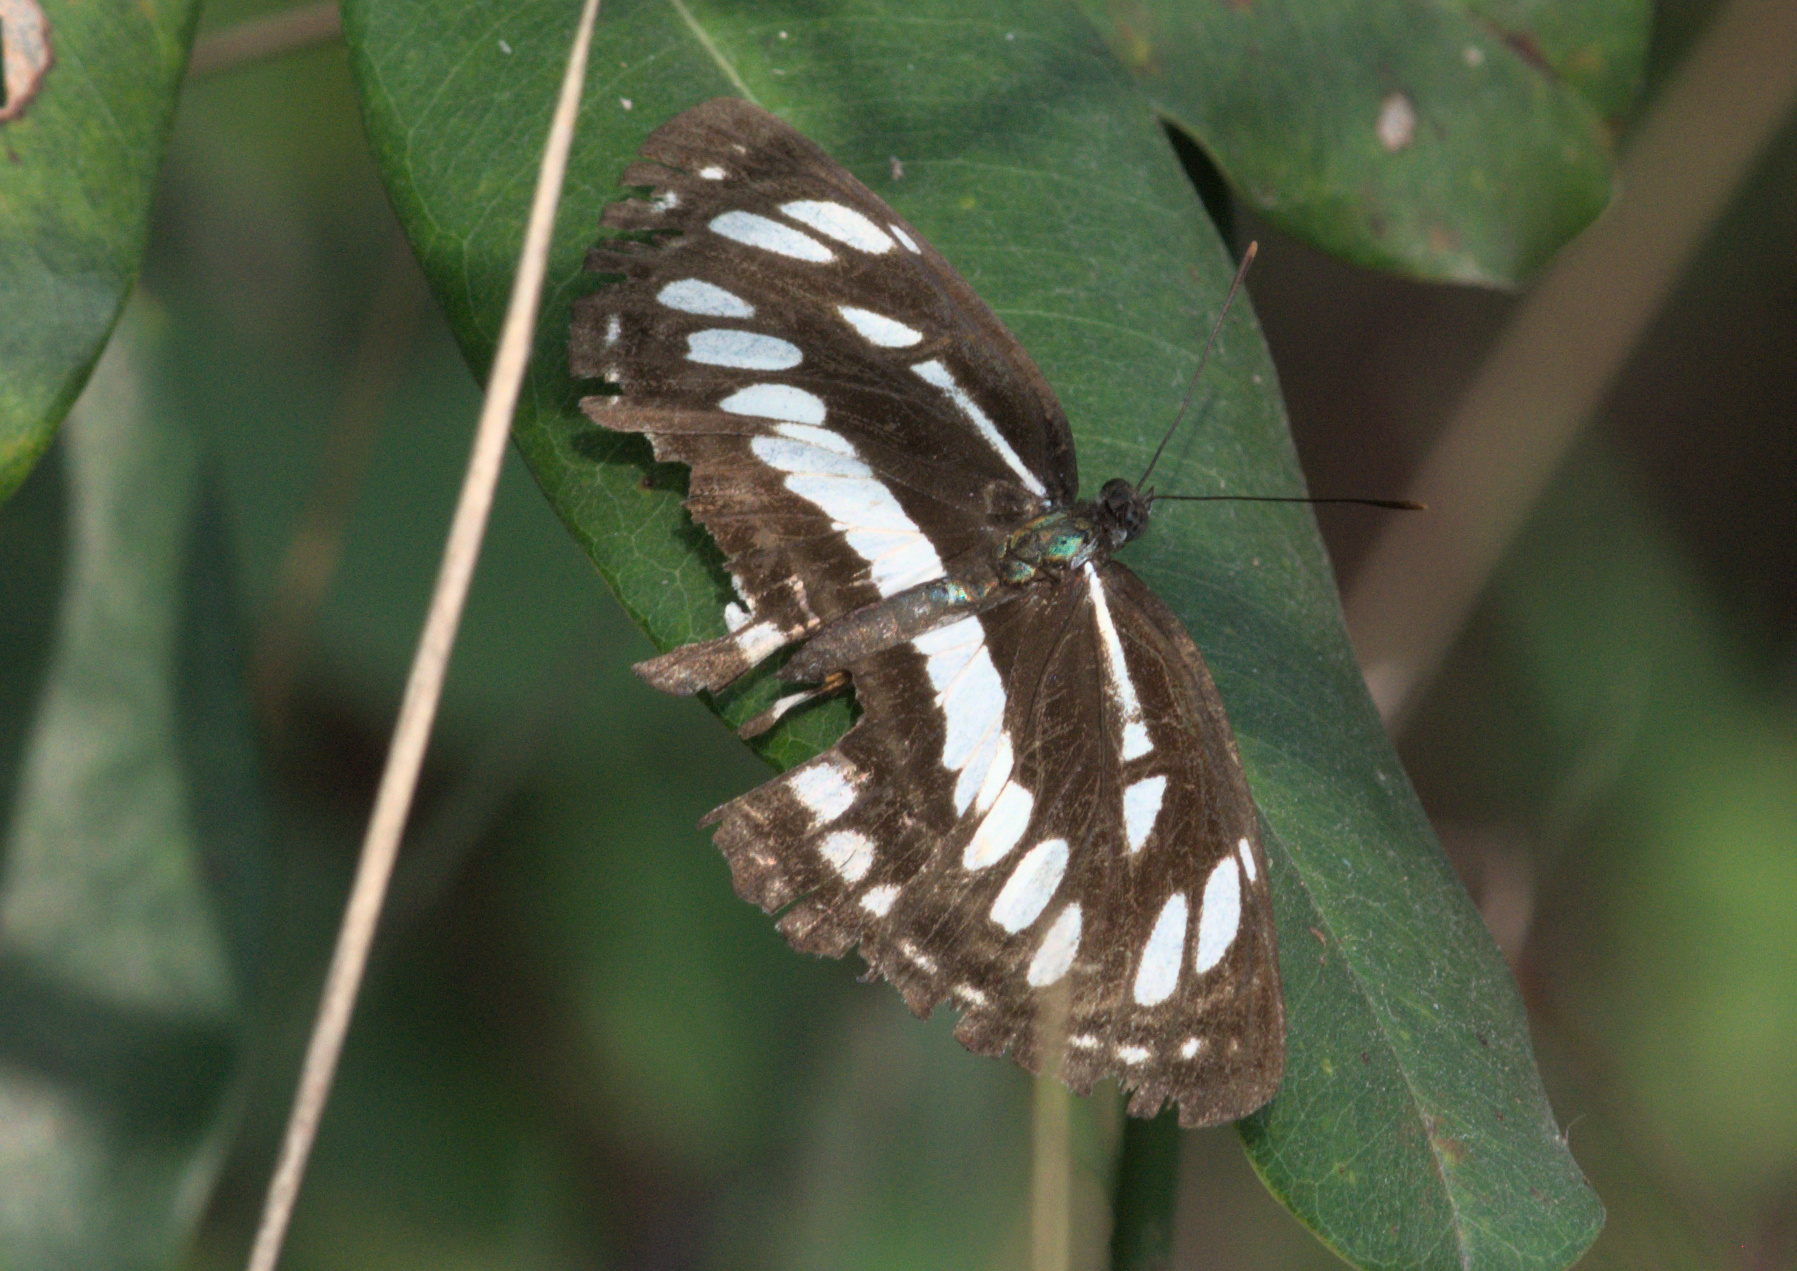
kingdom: Animalia
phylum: Arthropoda
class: Insecta
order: Lepidoptera
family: Nymphalidae
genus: Neptis
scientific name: Neptis hylas
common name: Common sailer
